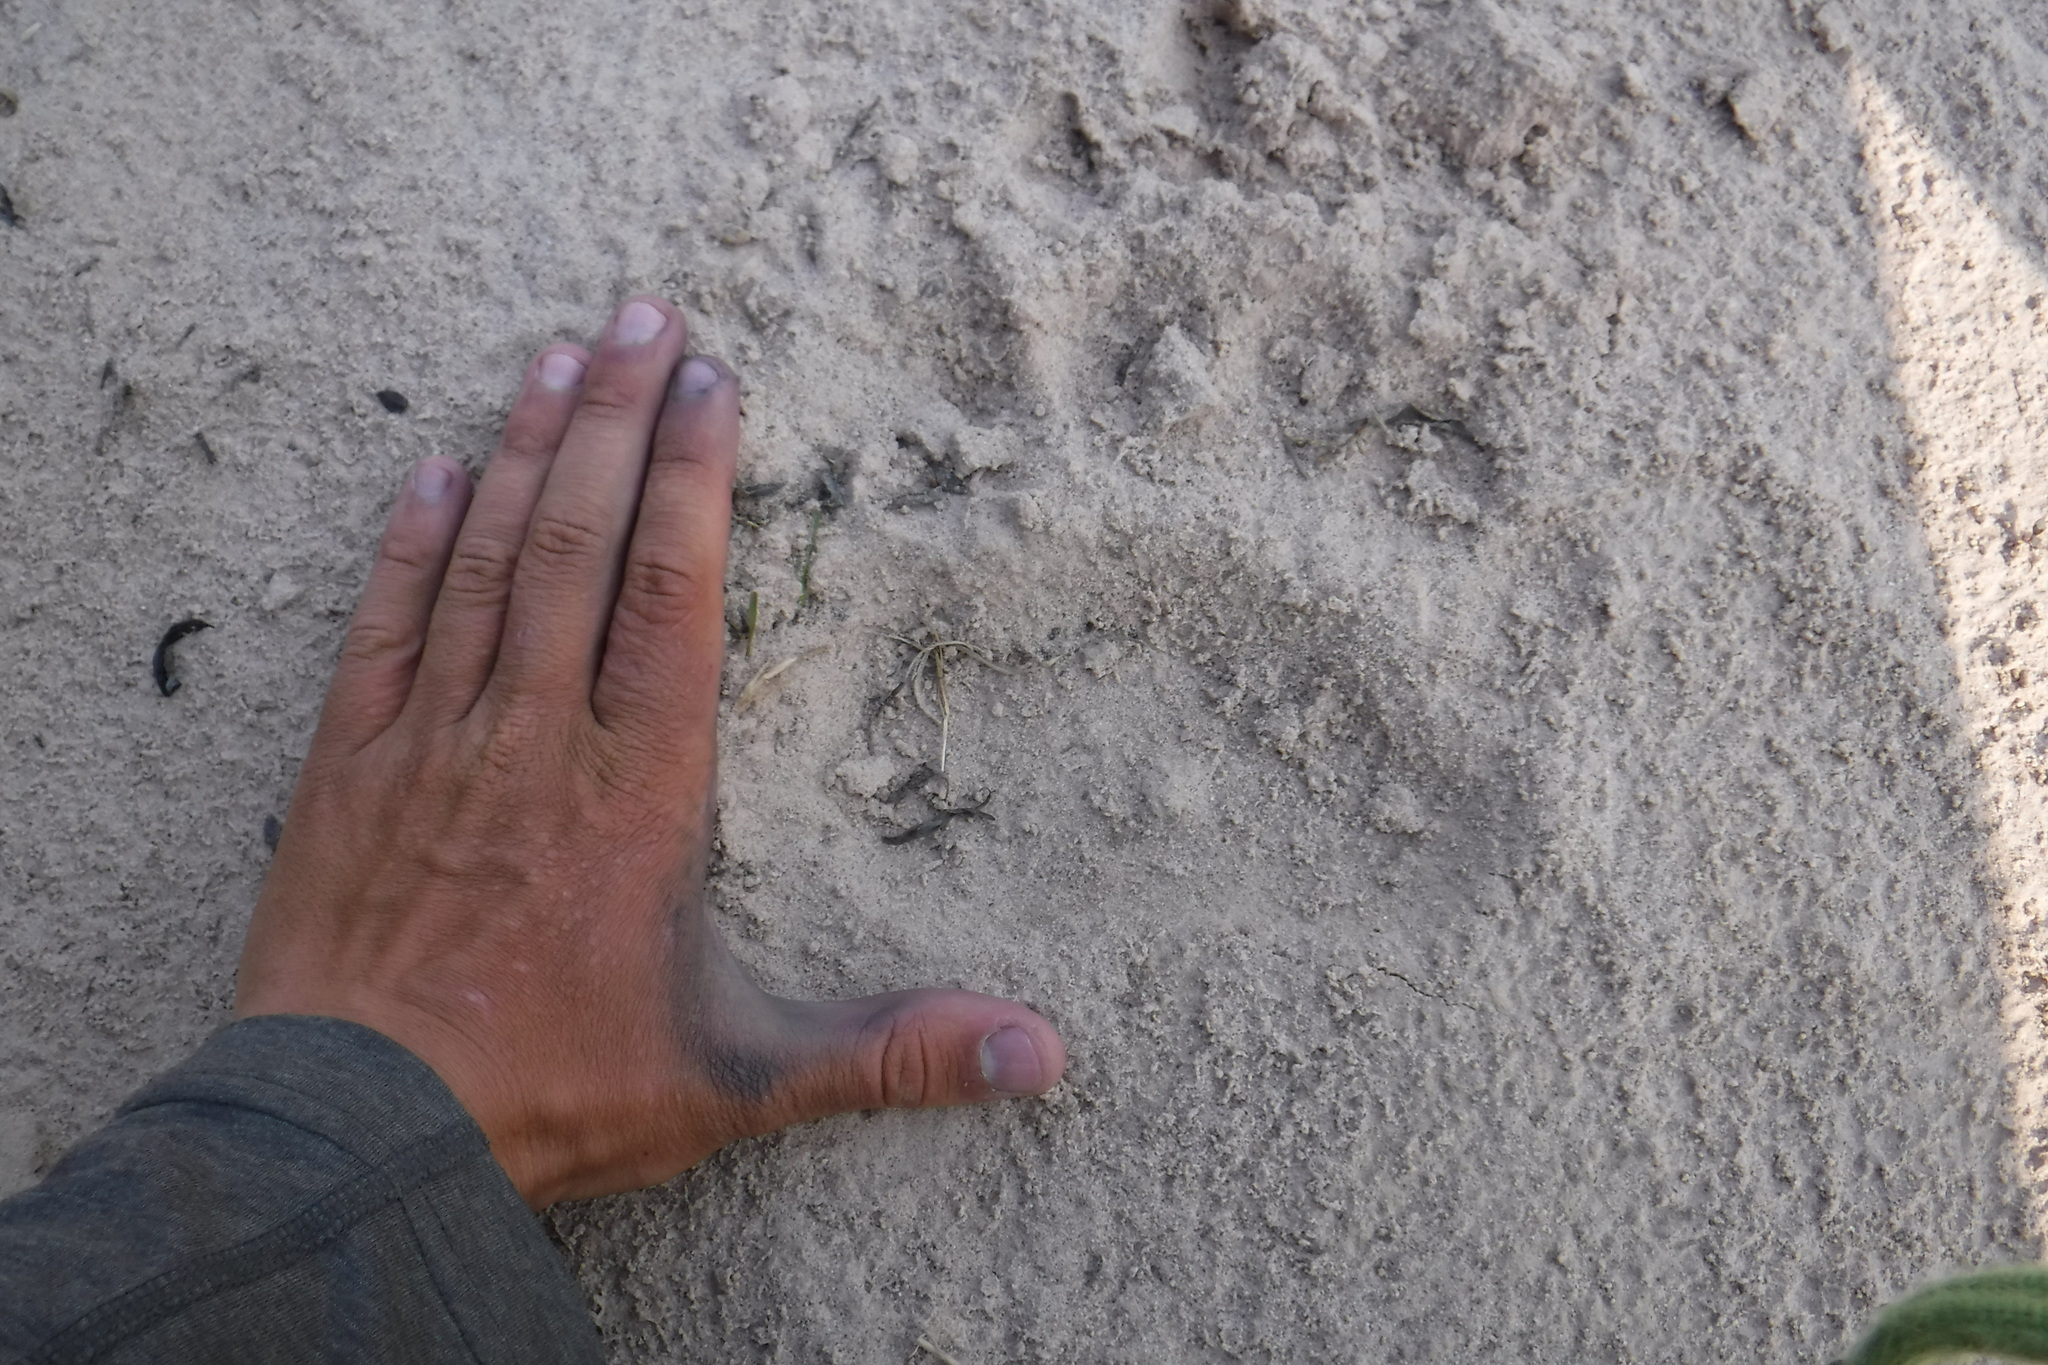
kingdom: Animalia
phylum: Chordata
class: Mammalia
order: Carnivora
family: Ursidae
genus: Ursus
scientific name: Ursus arctos
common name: Brown bear
